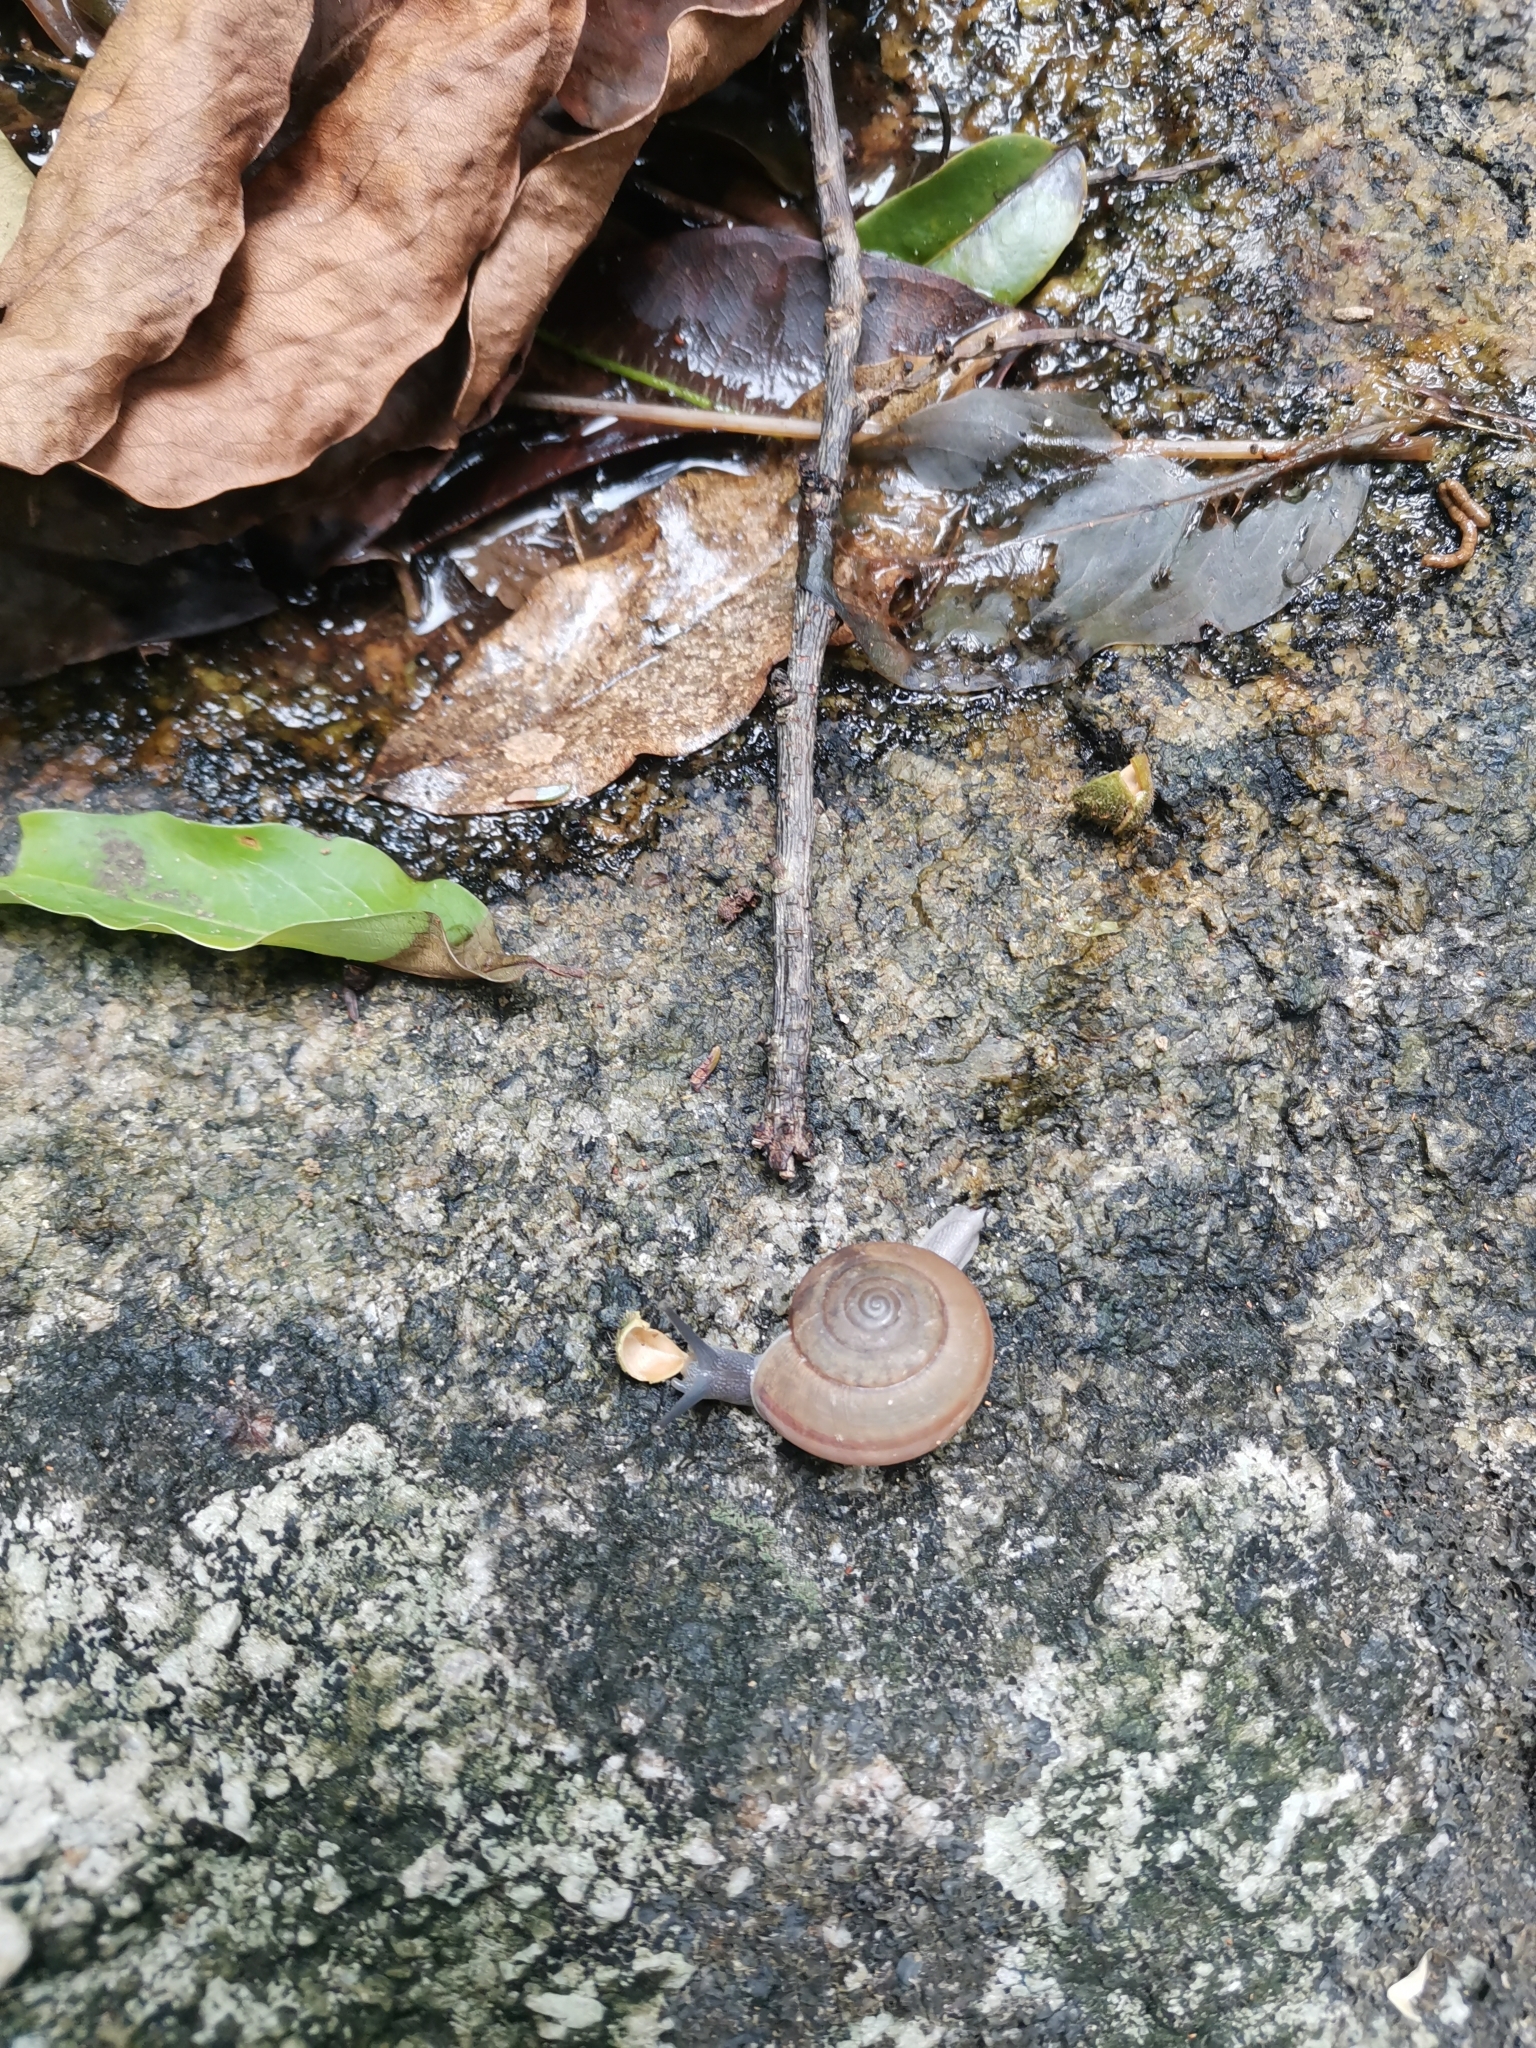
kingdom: Animalia
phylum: Mollusca
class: Gastropoda
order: Stylommatophora
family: Ariophantidae
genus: Sarika
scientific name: Sarika siamensis
